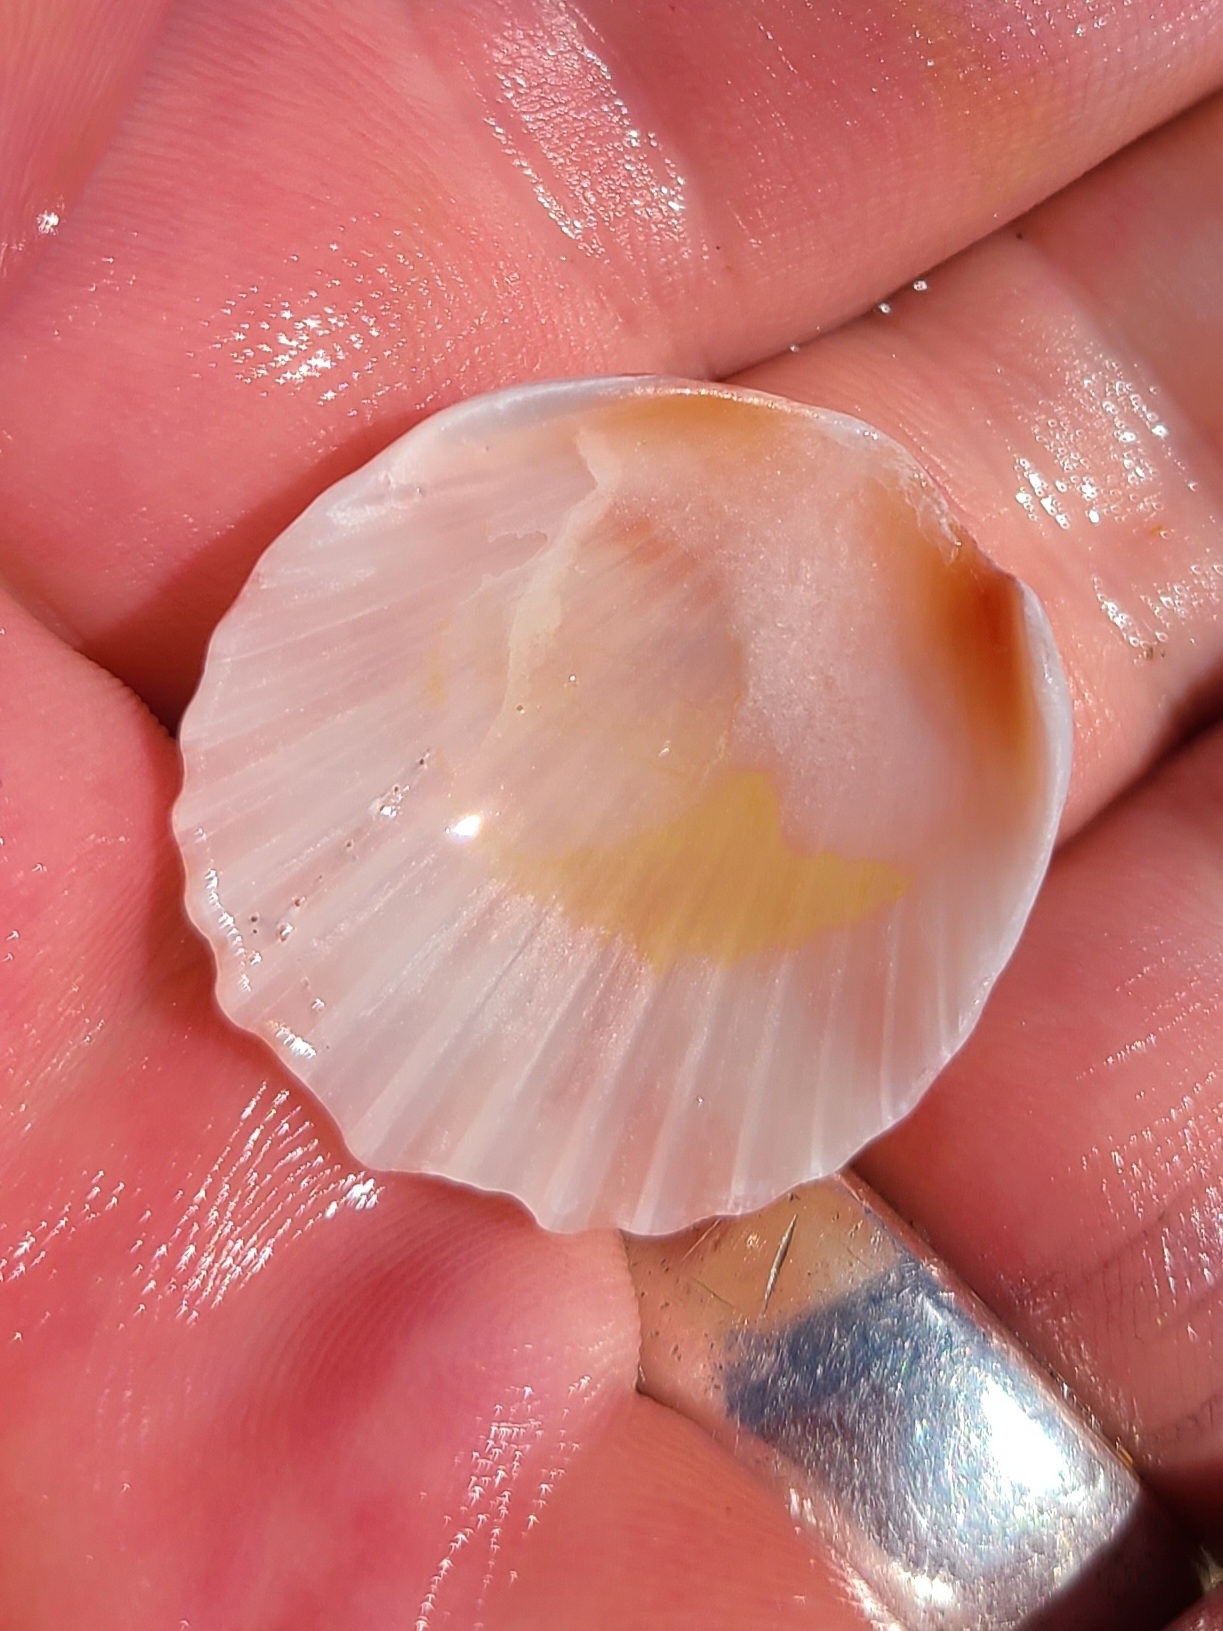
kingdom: Animalia
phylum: Mollusca
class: Bivalvia
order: Pectinida
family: Pectinidae
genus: Argopecten
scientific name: Argopecten gibbus
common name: Atlantic calico scallop
